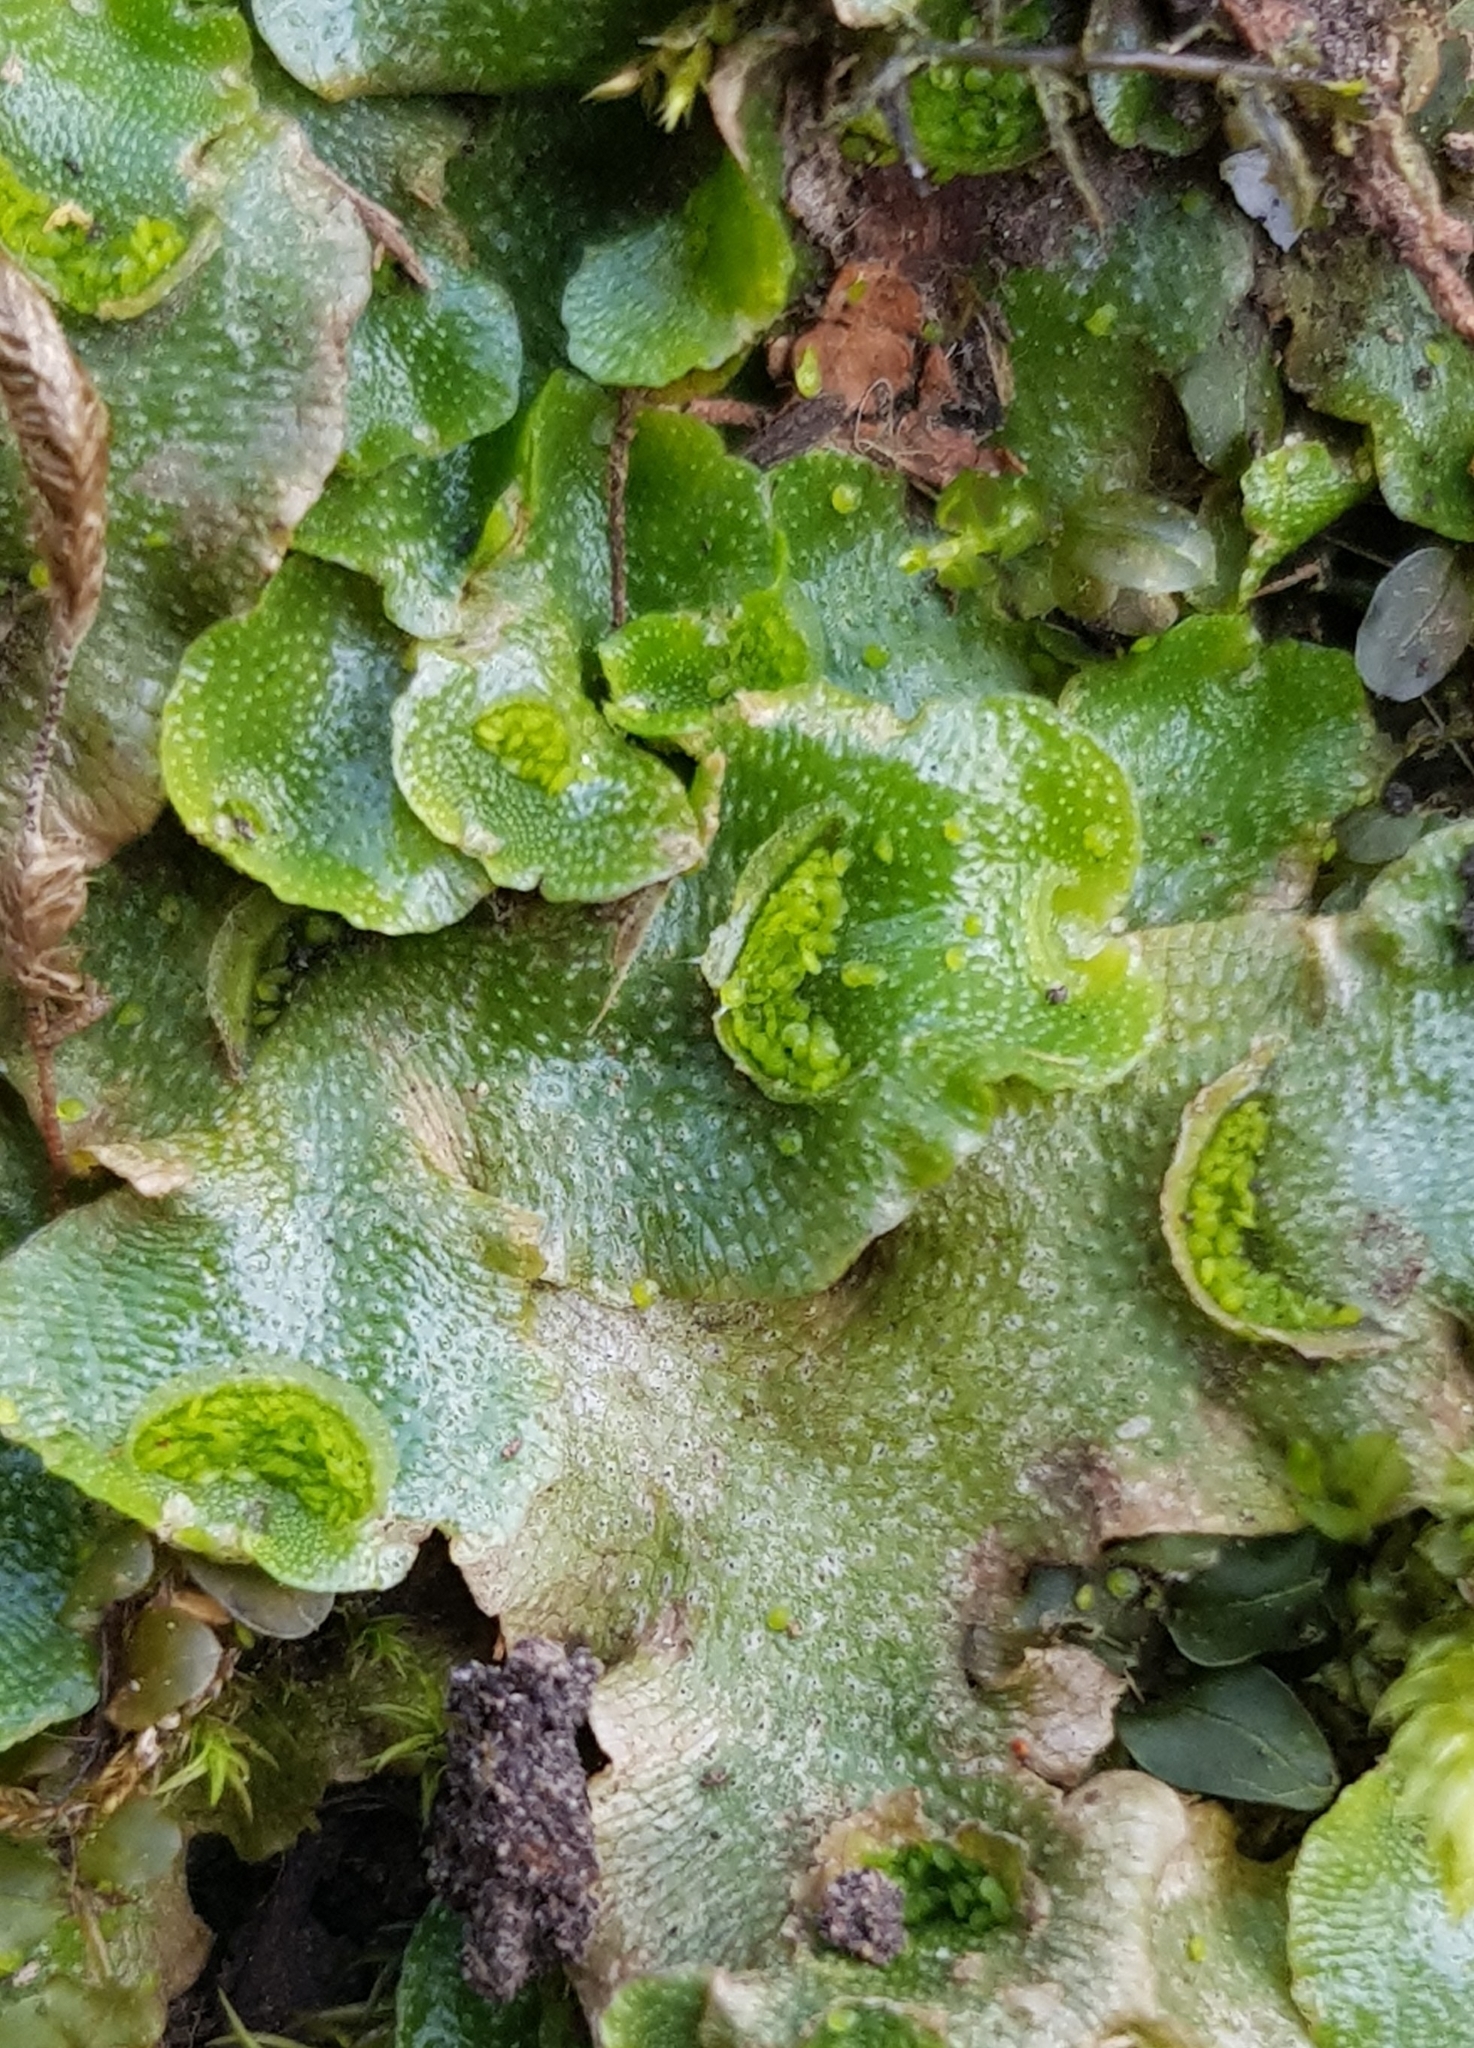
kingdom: Plantae
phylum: Marchantiophyta
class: Marchantiopsida
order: Lunulariales
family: Lunulariaceae
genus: Lunularia
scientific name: Lunularia cruciata
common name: Crescent-cup liverwort
